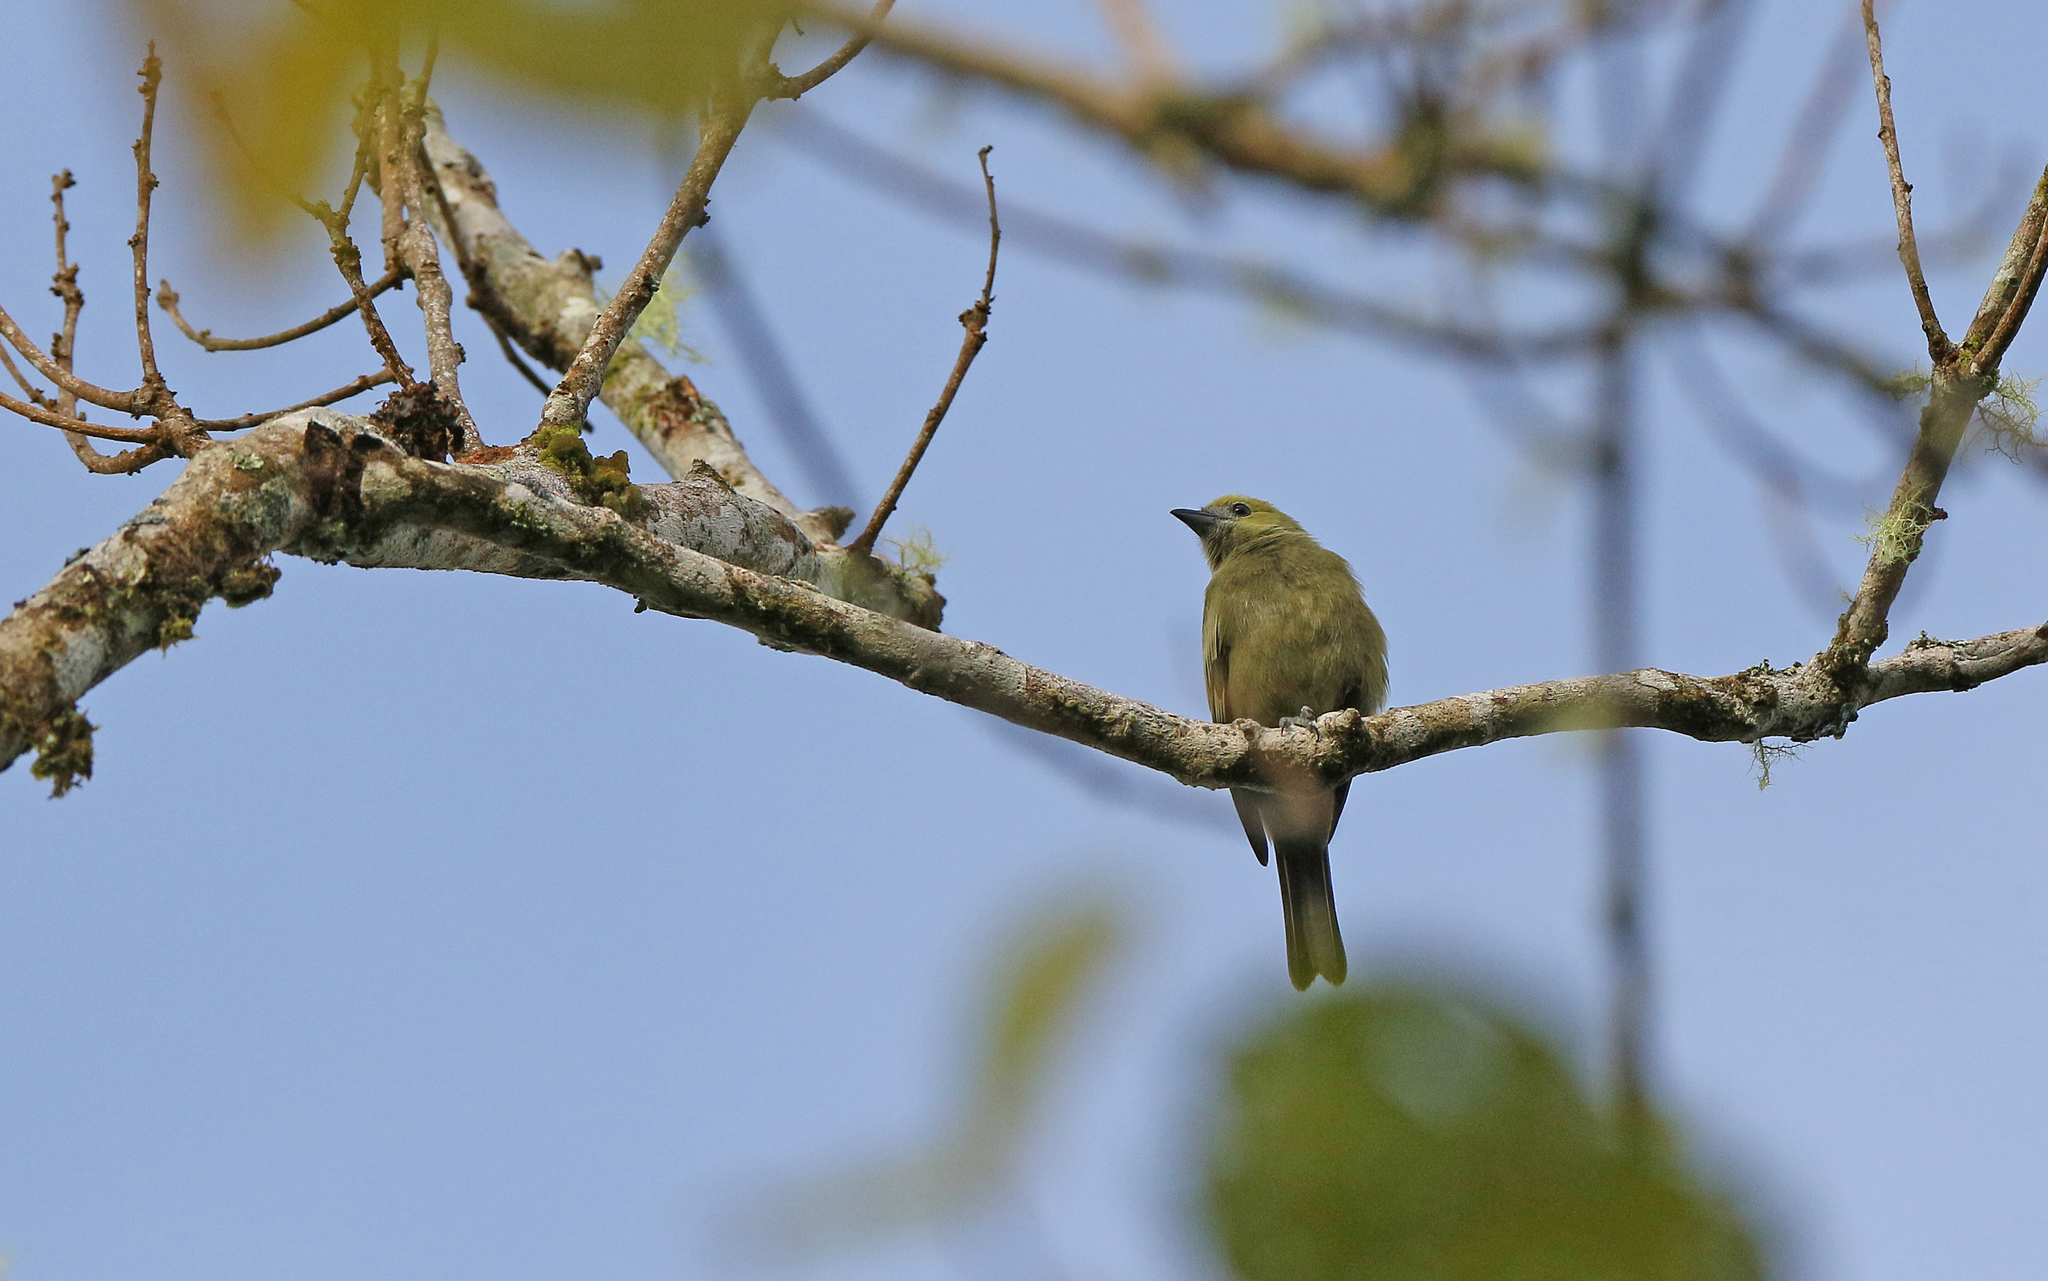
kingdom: Animalia
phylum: Chordata
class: Aves
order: Passeriformes
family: Thraupidae
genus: Thraupis
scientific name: Thraupis palmarum
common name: Palm tanager
